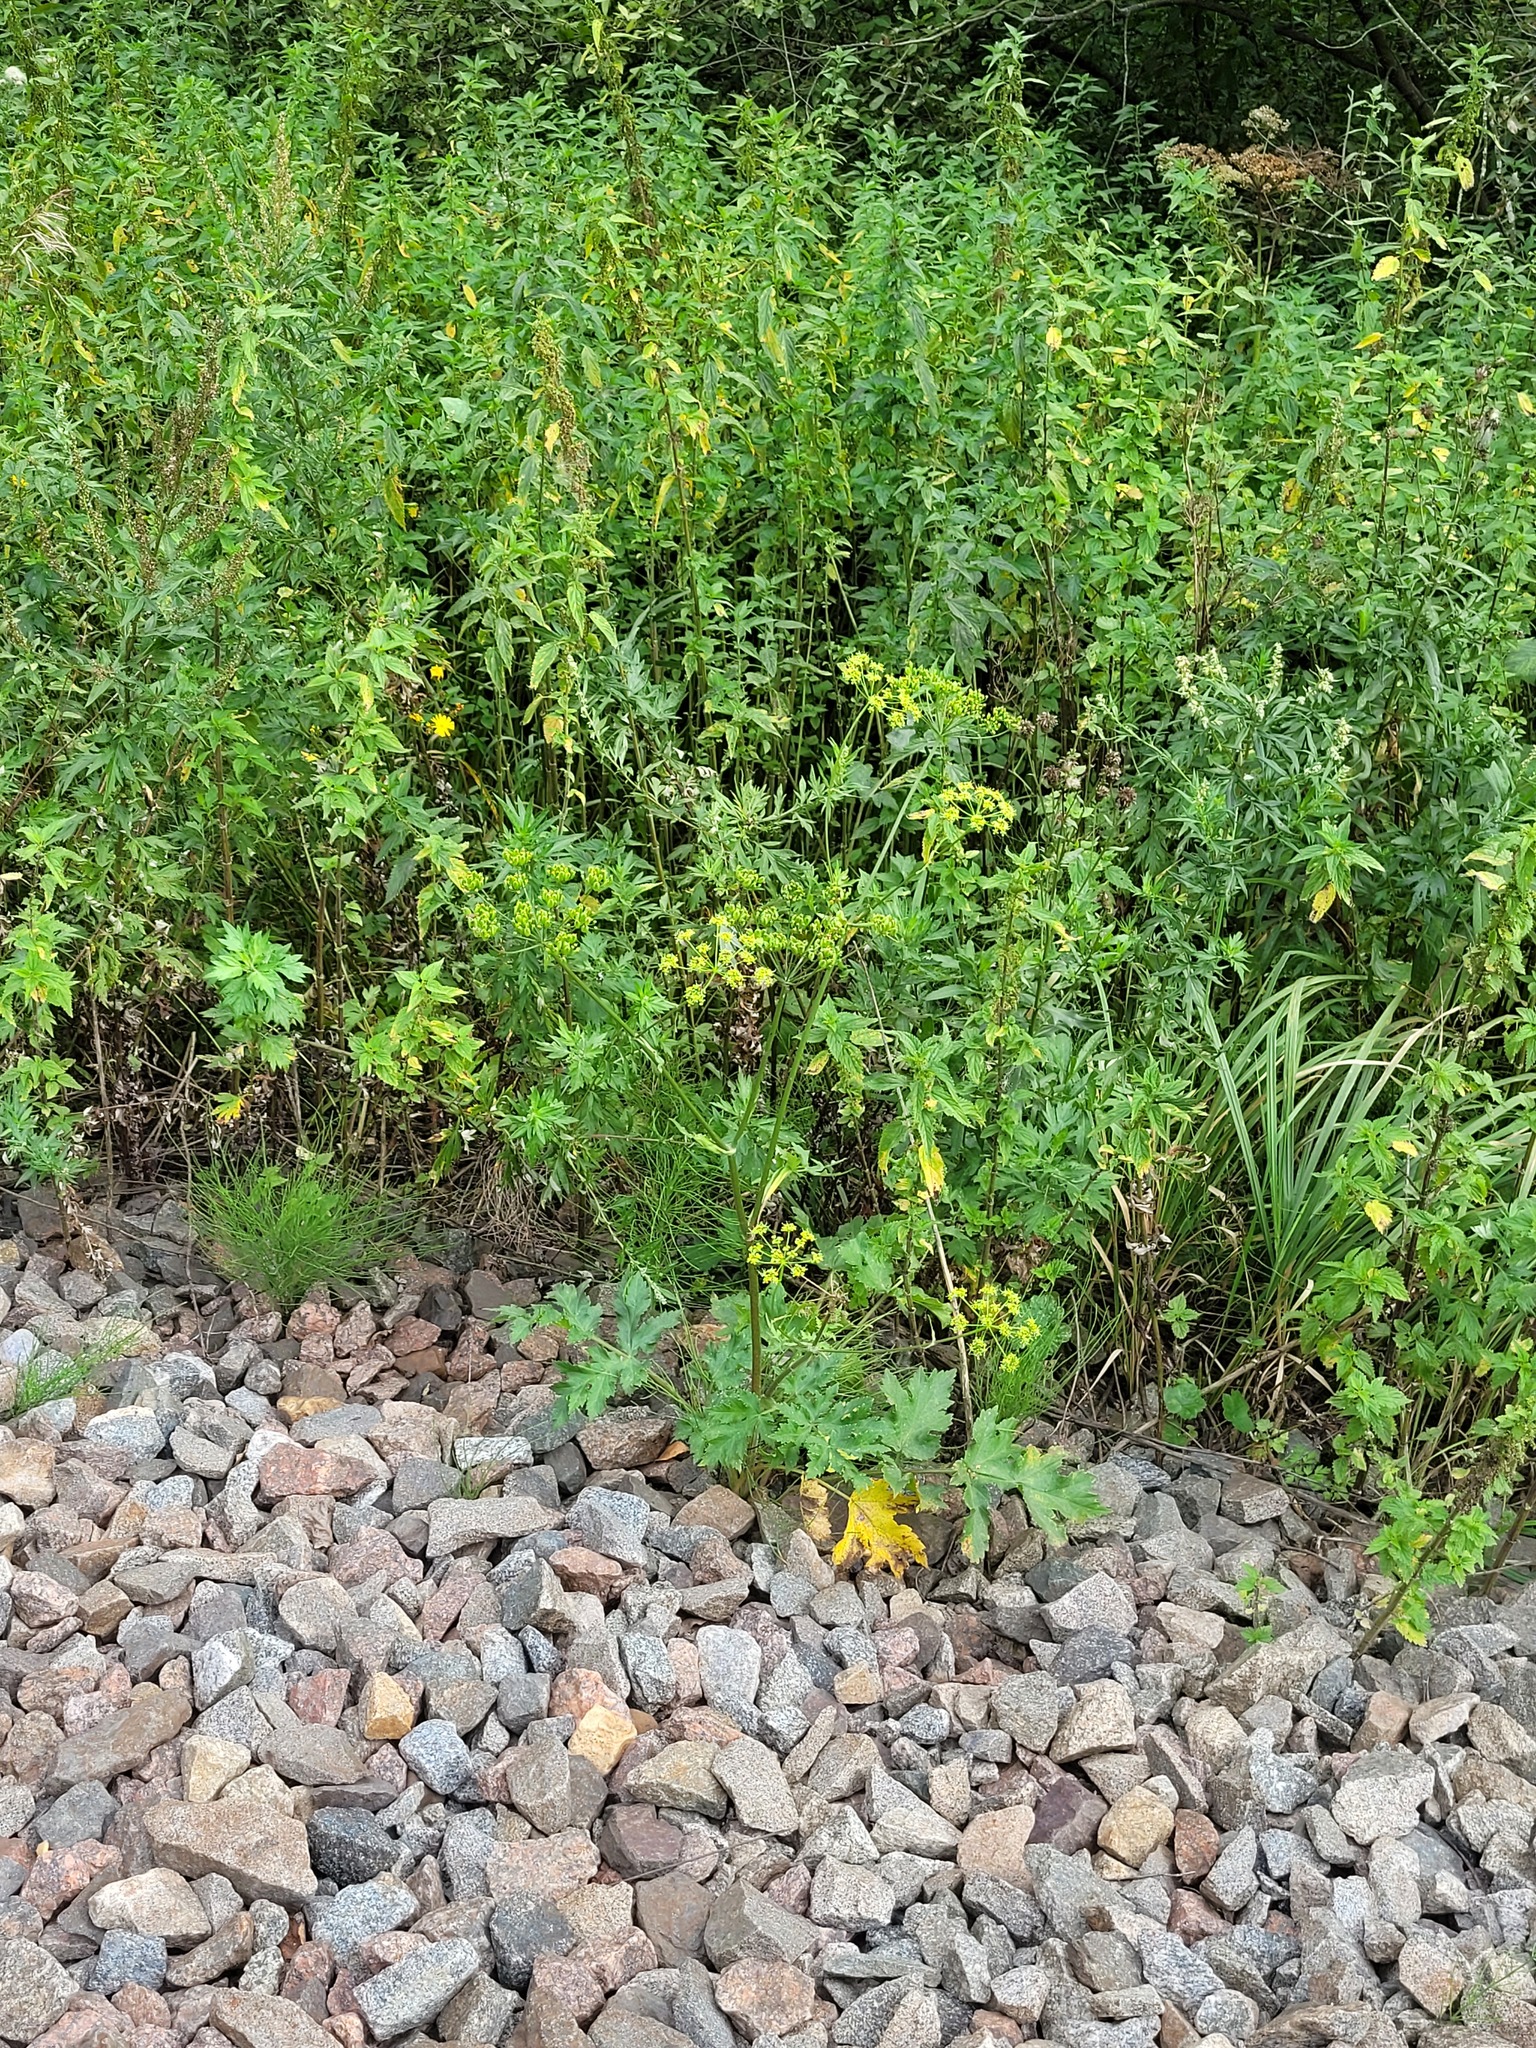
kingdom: Plantae
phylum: Tracheophyta
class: Magnoliopsida
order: Apiales
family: Apiaceae
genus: Heracleum
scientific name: Heracleum sphondylium
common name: Hogweed
